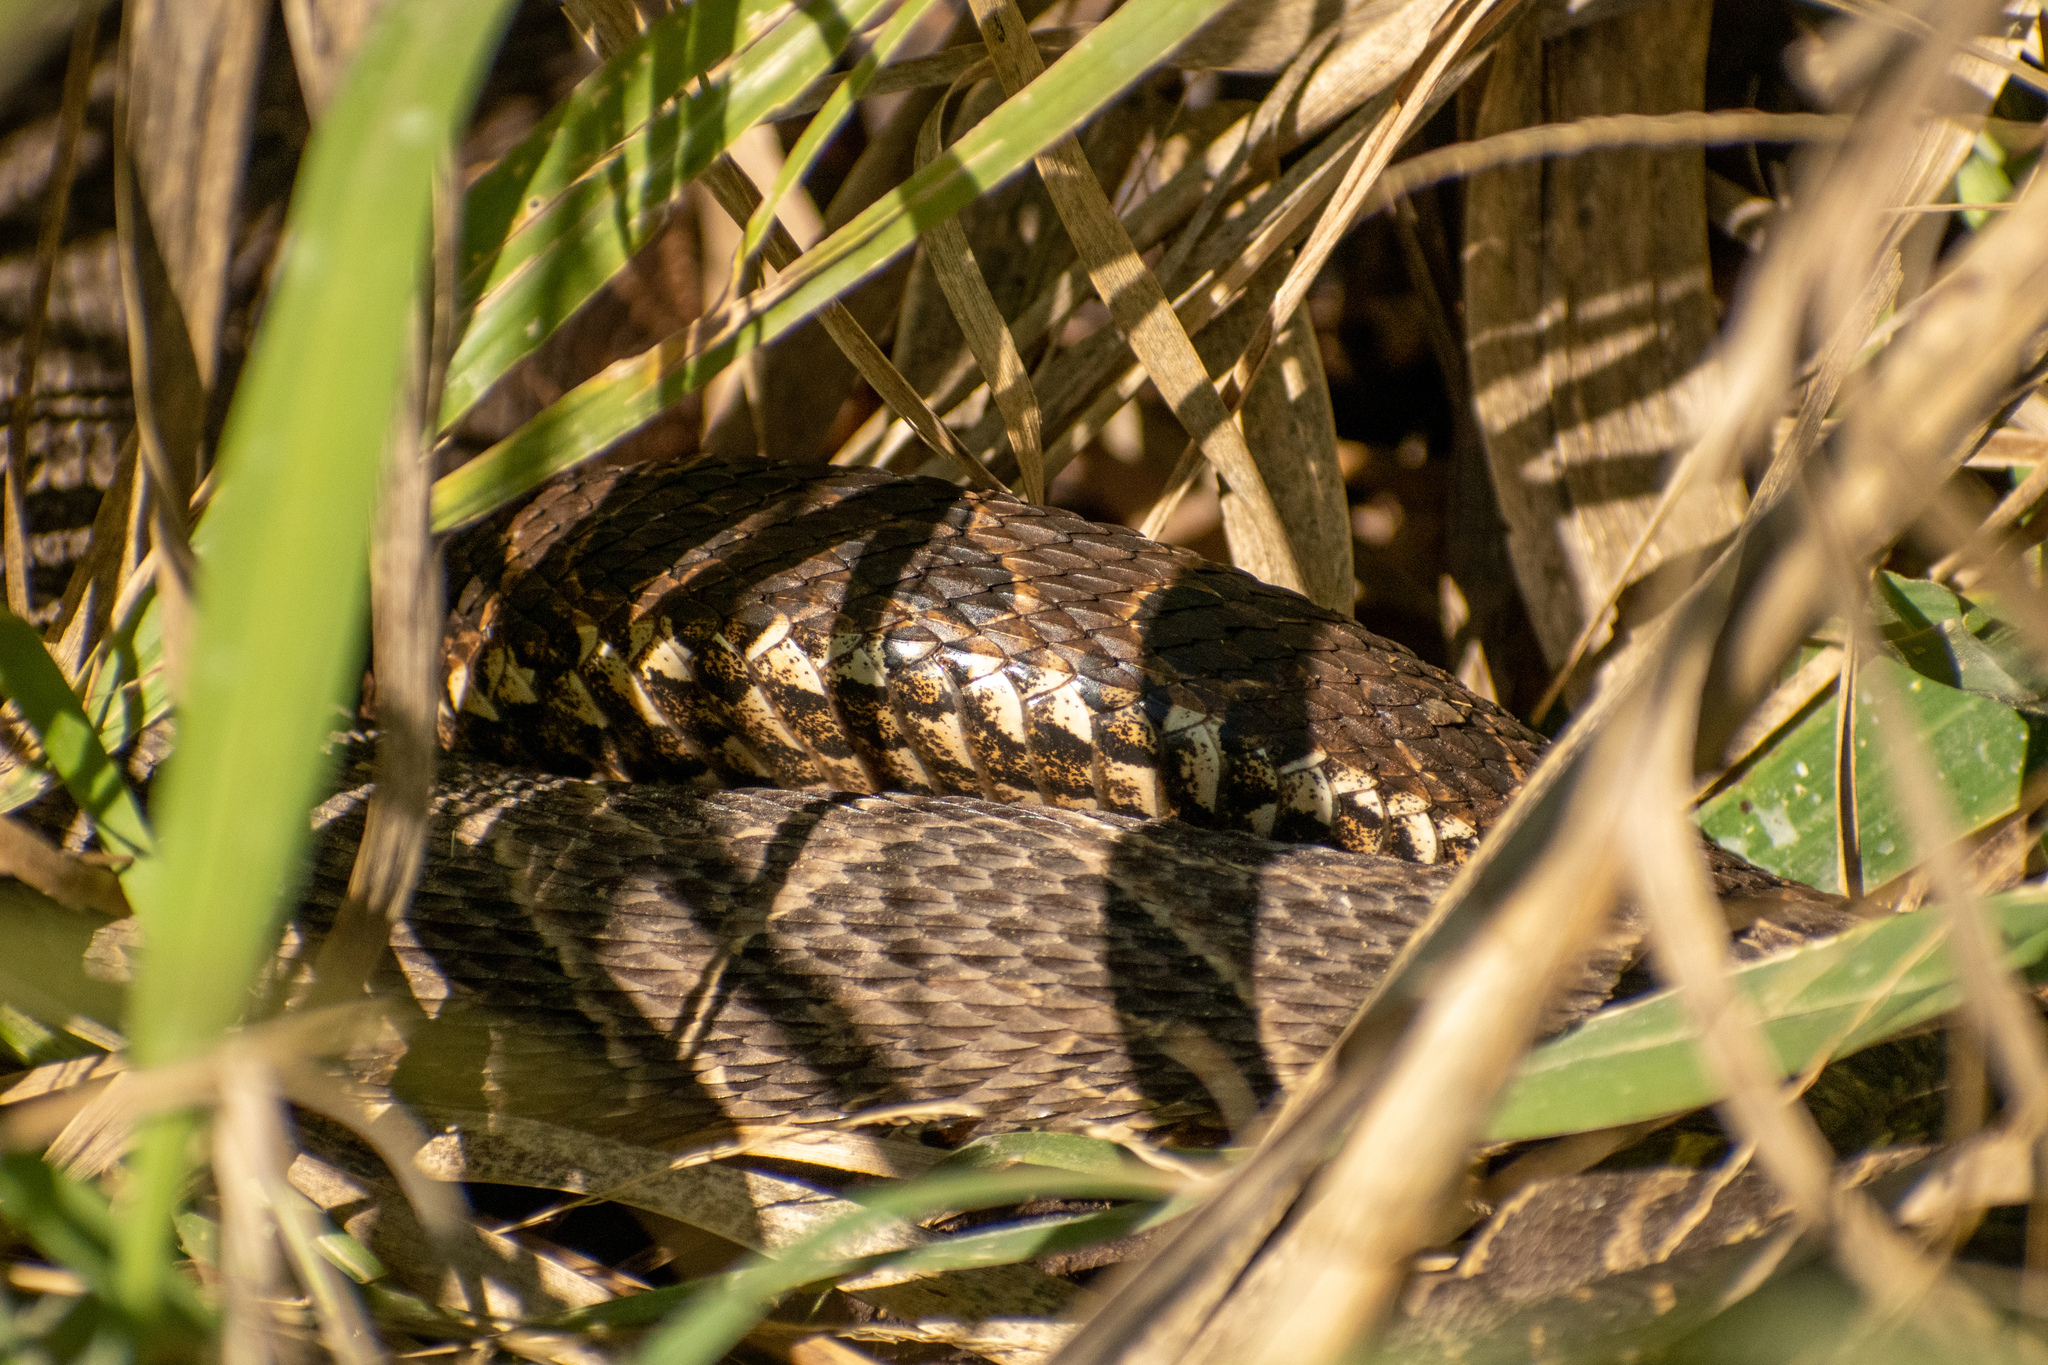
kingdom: Animalia
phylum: Chordata
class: Squamata
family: Viperidae
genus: Bothrops
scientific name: Bothrops alternatus
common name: Urutu
